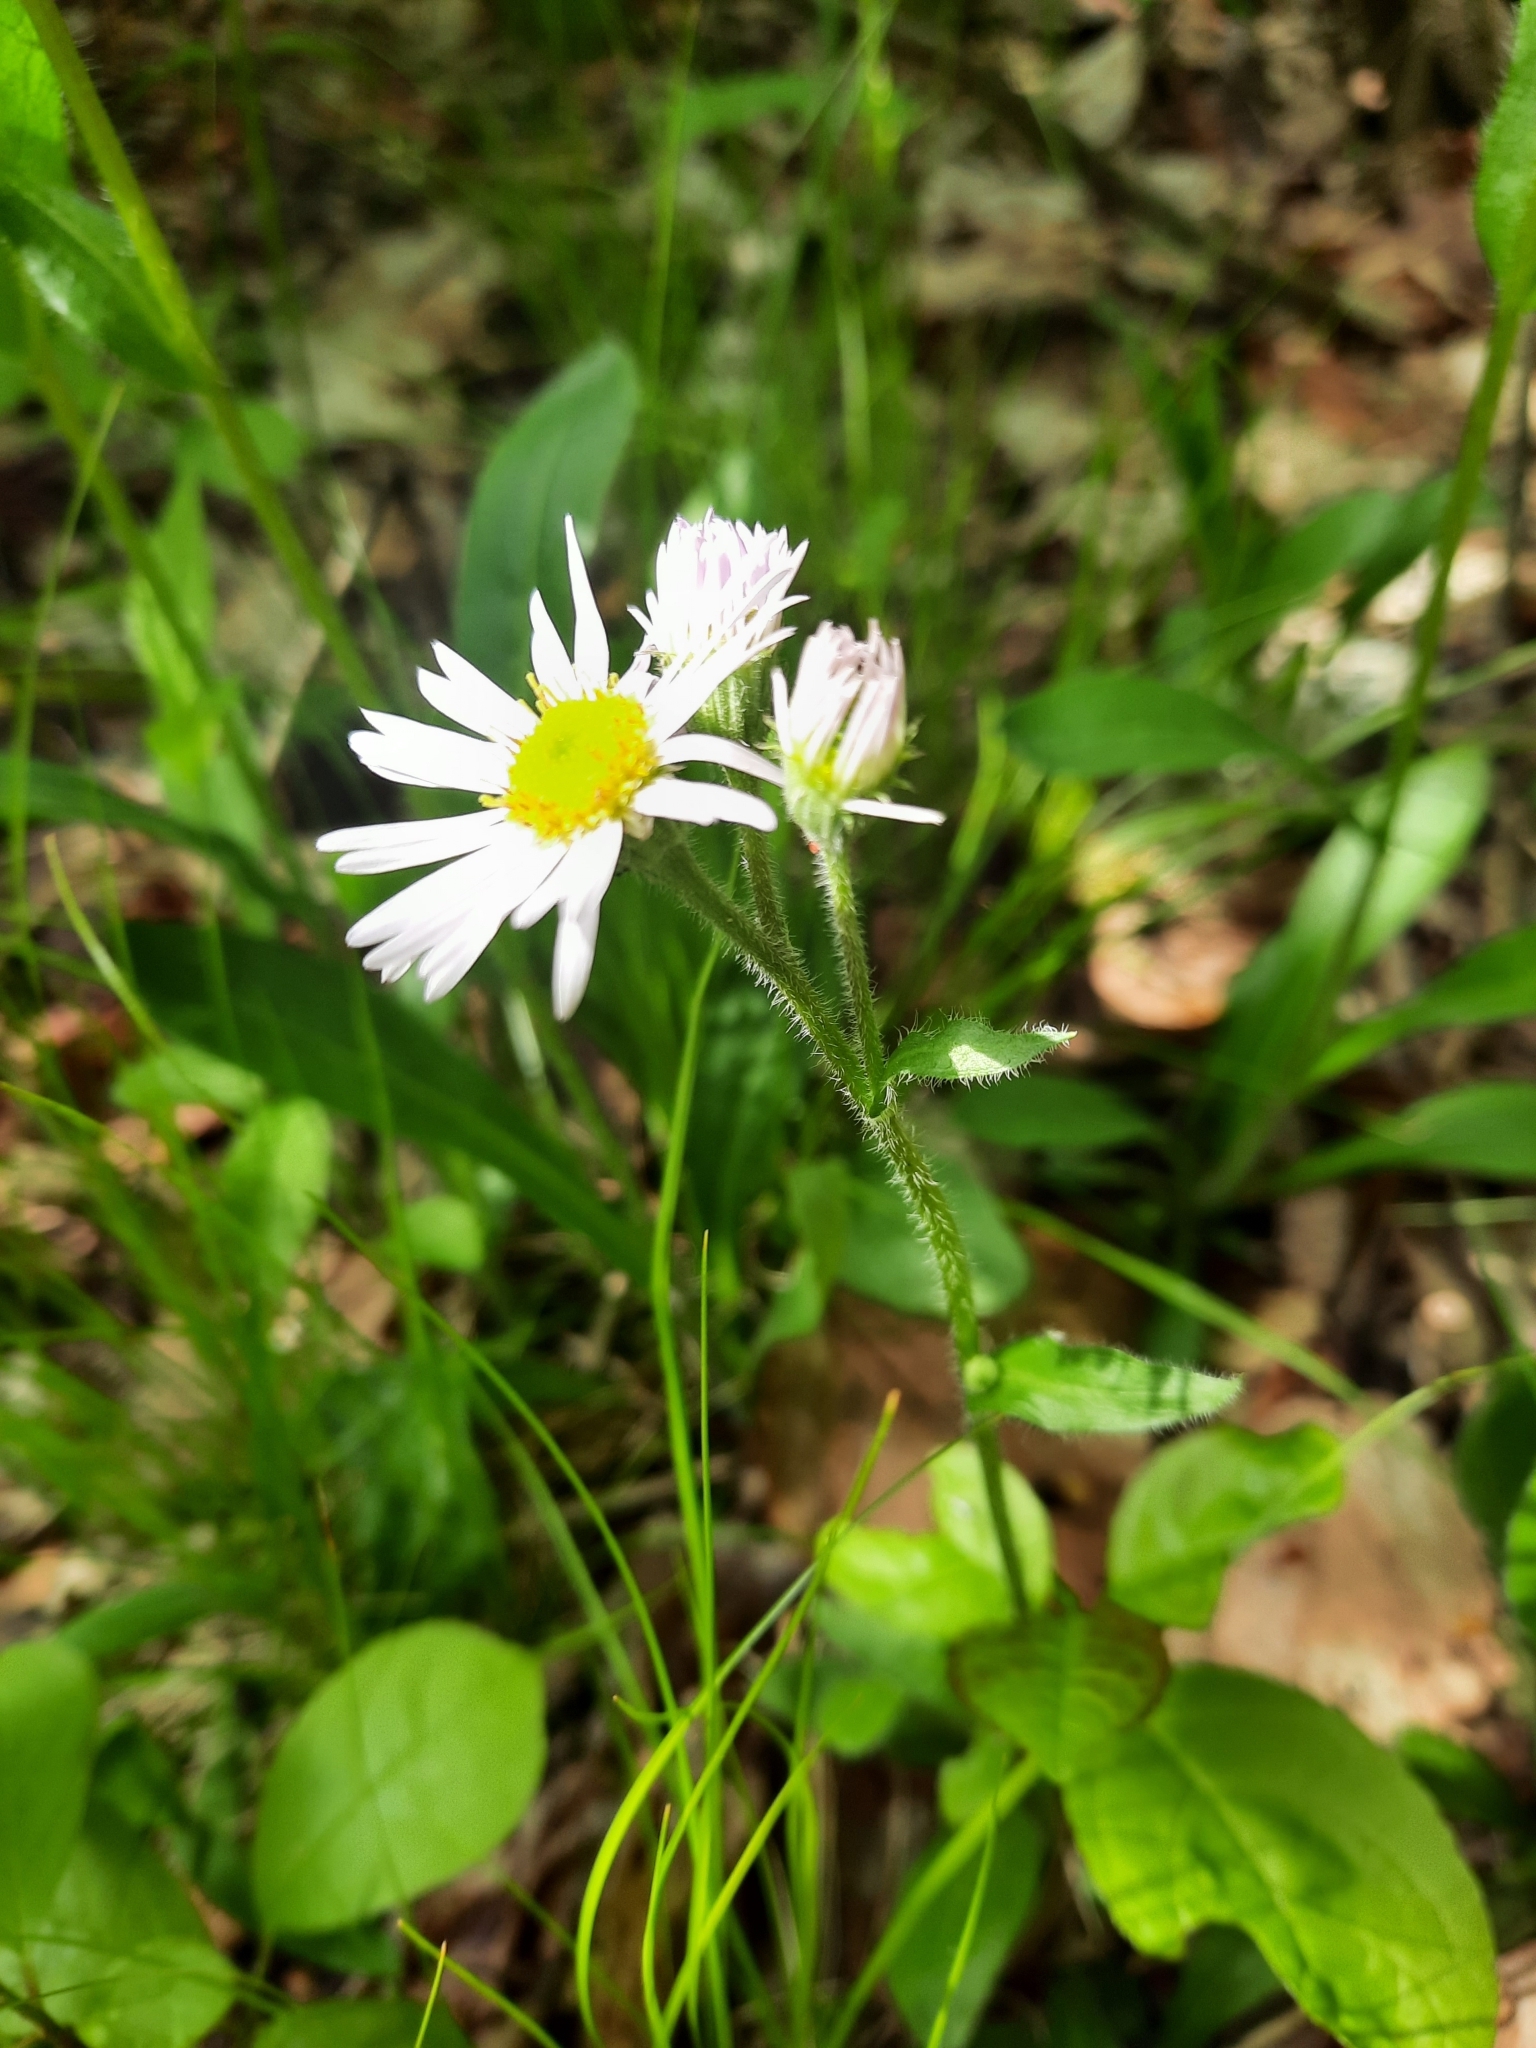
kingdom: Plantae
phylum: Tracheophyta
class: Magnoliopsida
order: Asterales
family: Asteraceae
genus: Erigeron
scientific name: Erigeron pulchellus
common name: Hairy fleabane
